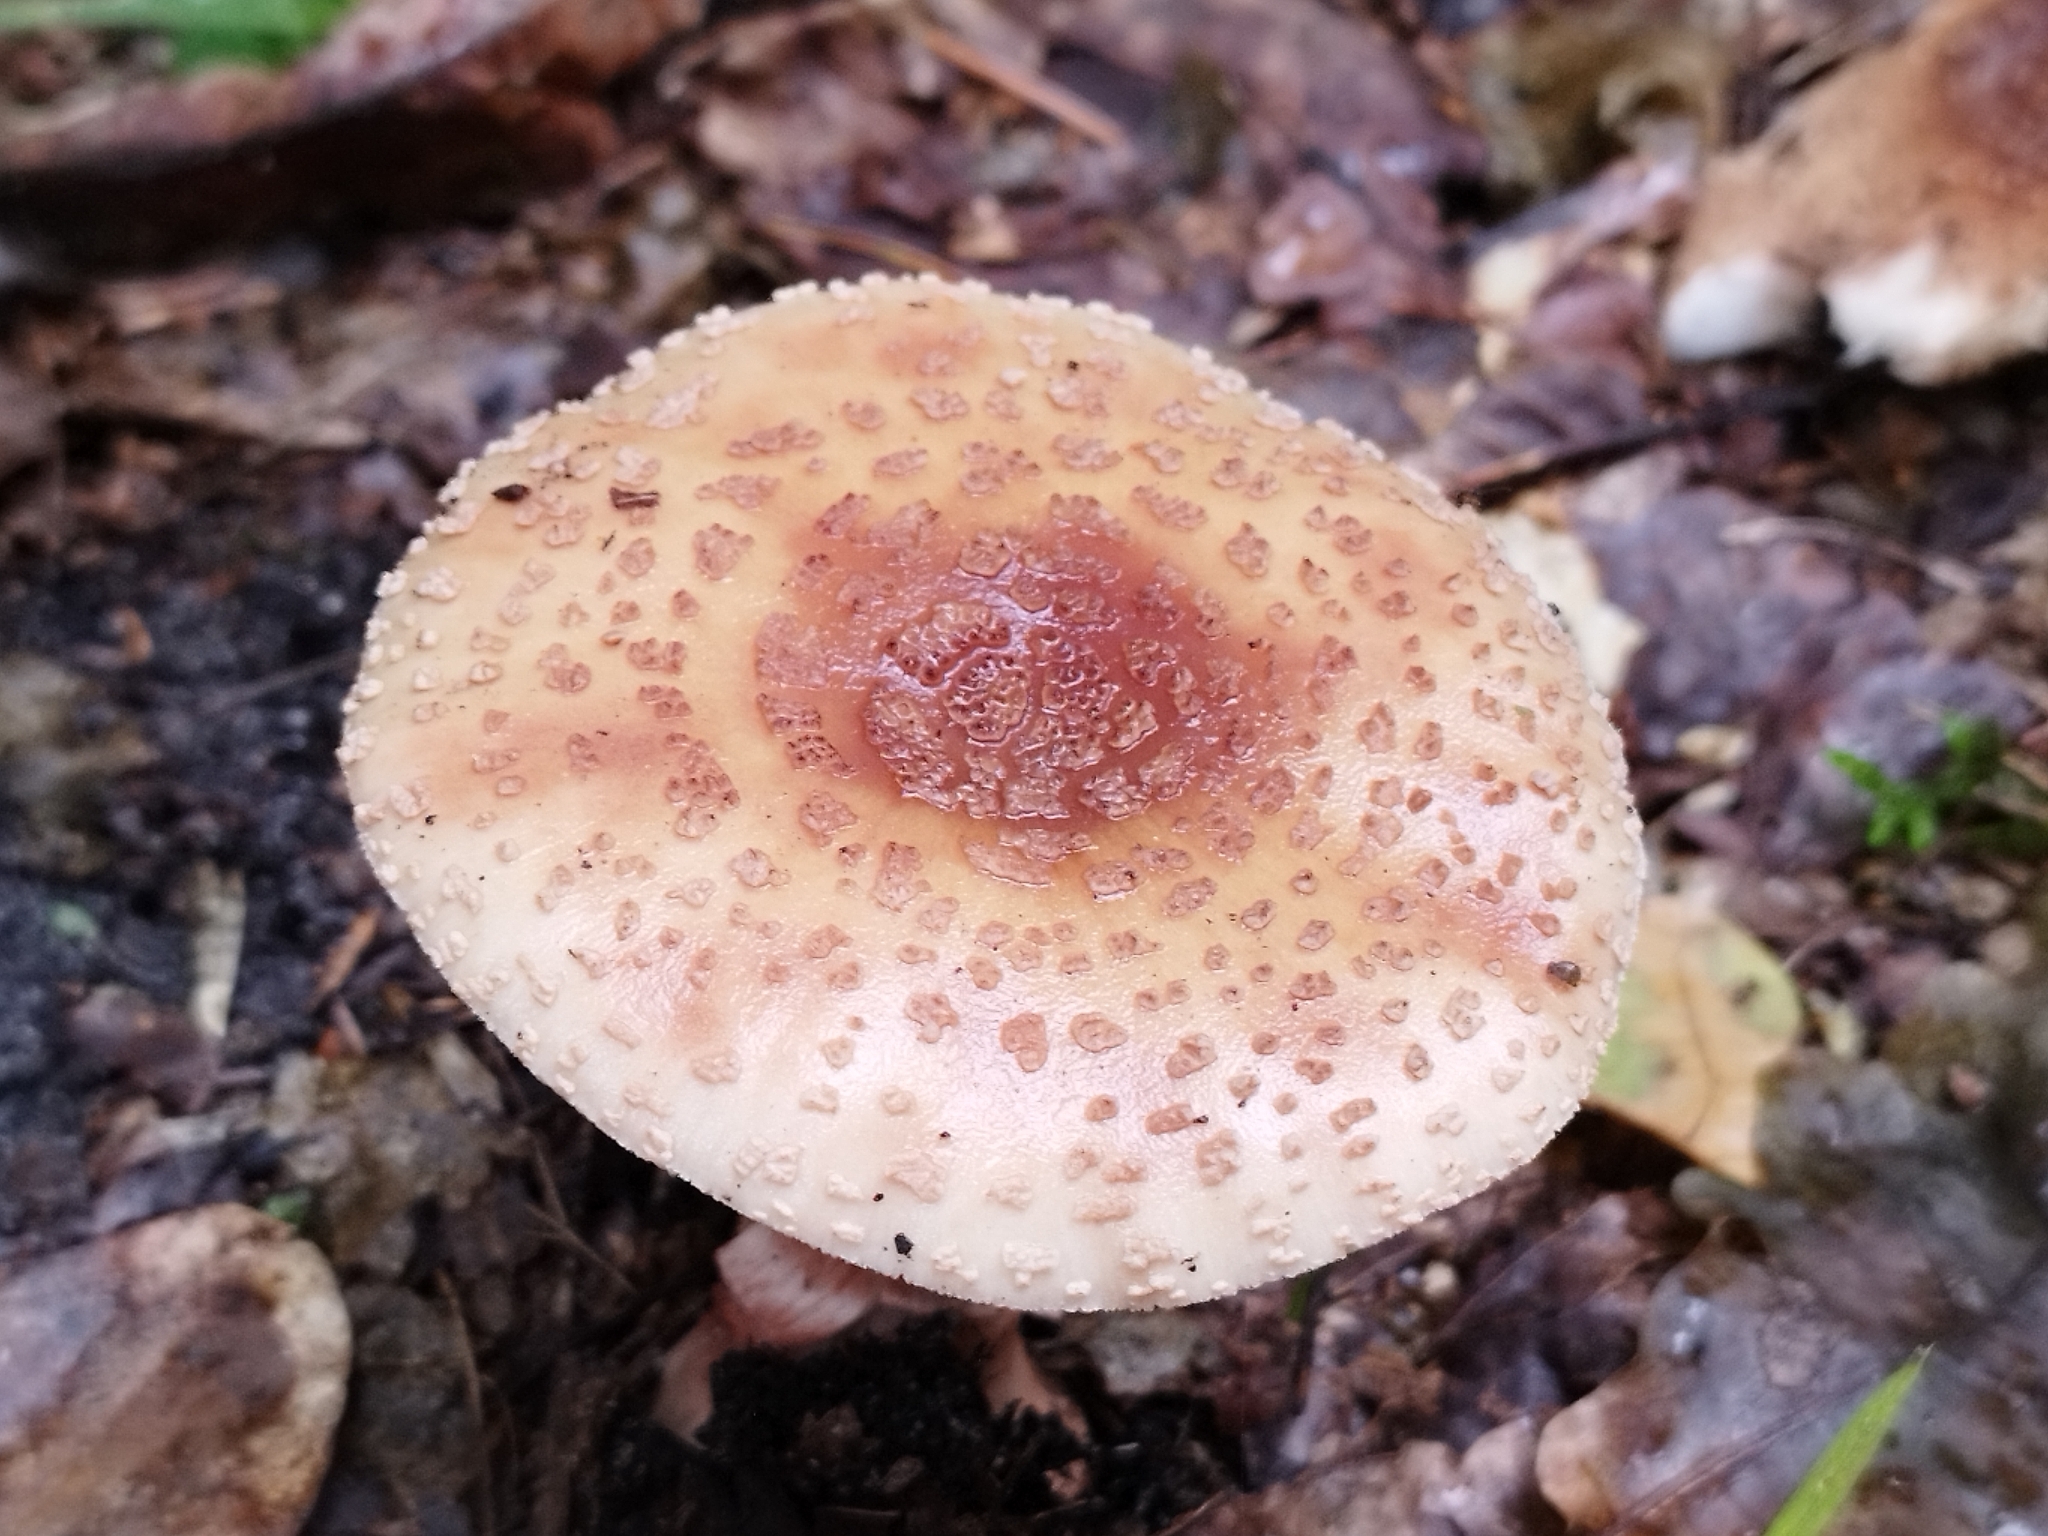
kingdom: Fungi
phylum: Basidiomycota
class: Agaricomycetes
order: Agaricales
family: Amanitaceae
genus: Amanita
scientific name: Amanita rubescens
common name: Blusher
